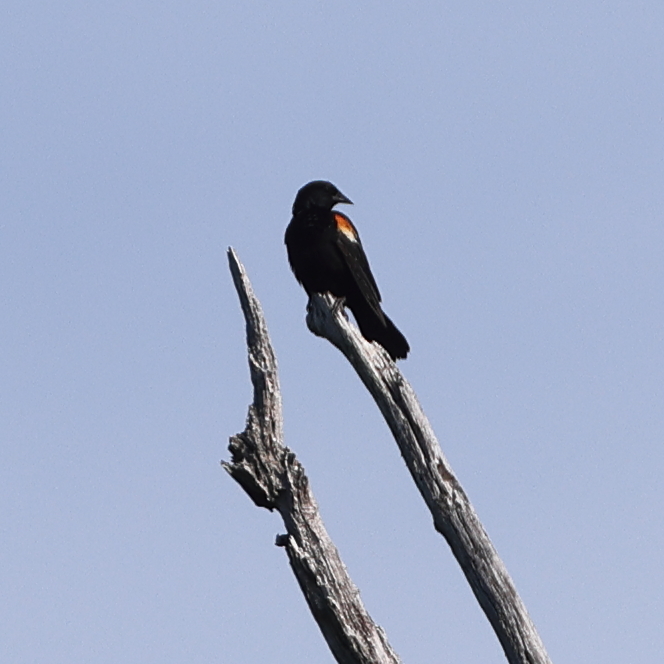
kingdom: Animalia
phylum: Chordata
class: Aves
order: Passeriformes
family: Icteridae
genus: Agelaius
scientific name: Agelaius phoeniceus
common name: Red-winged blackbird
